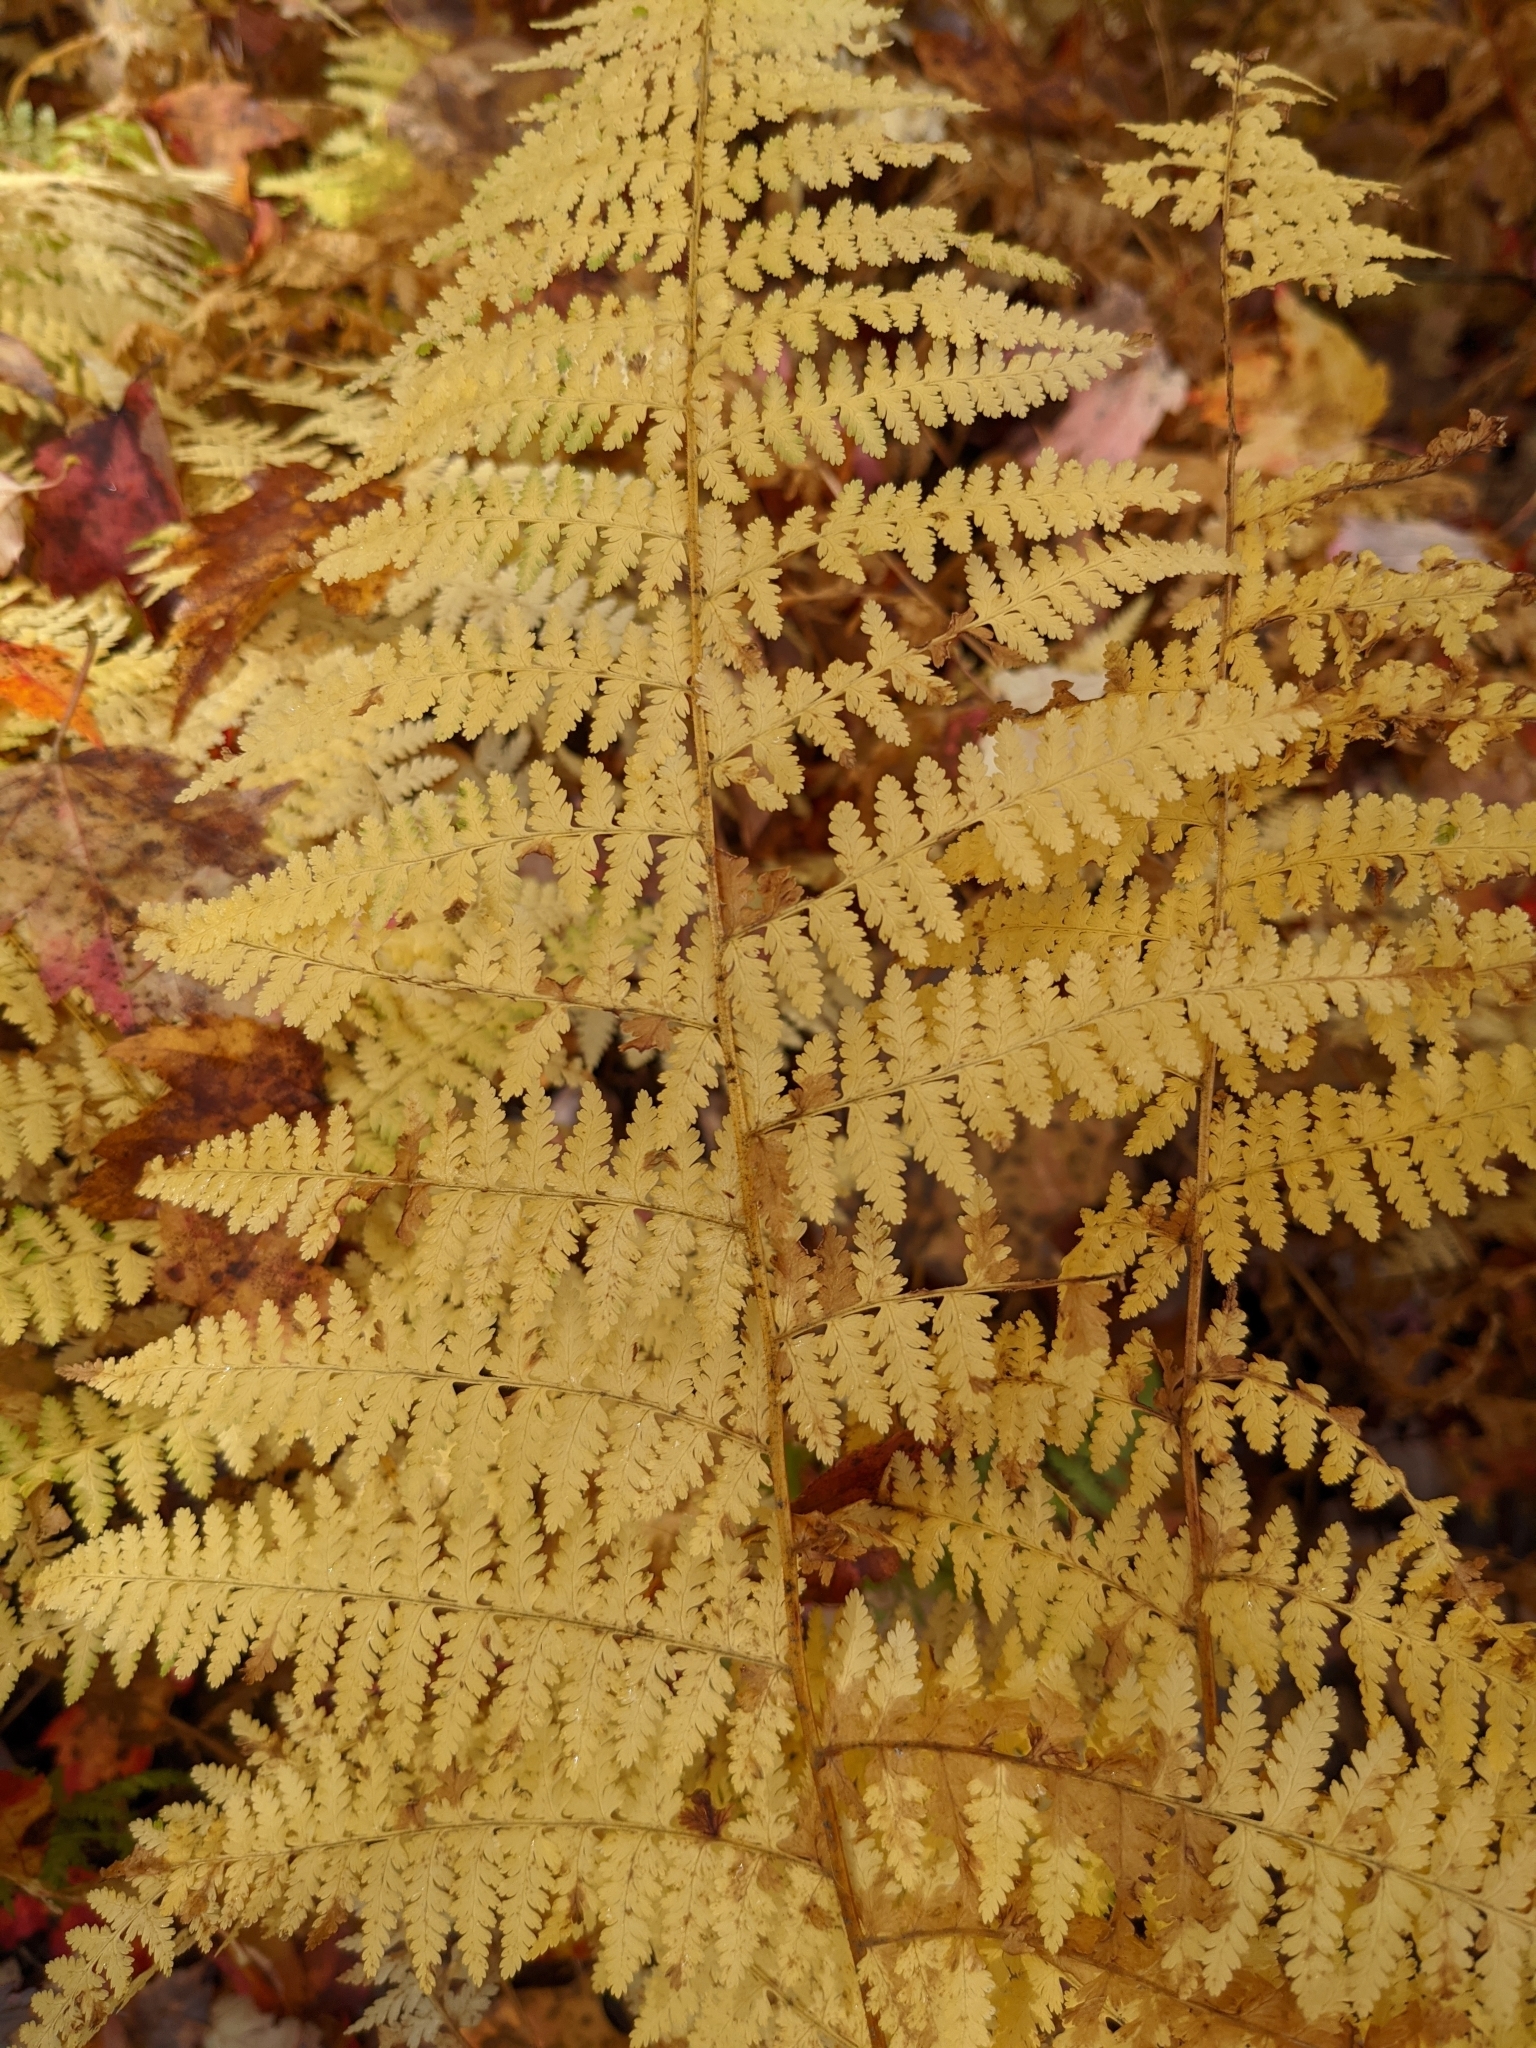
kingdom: Plantae
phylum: Tracheophyta
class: Polypodiopsida
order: Polypodiales
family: Dennstaedtiaceae
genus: Sitobolium
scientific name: Sitobolium punctilobum
